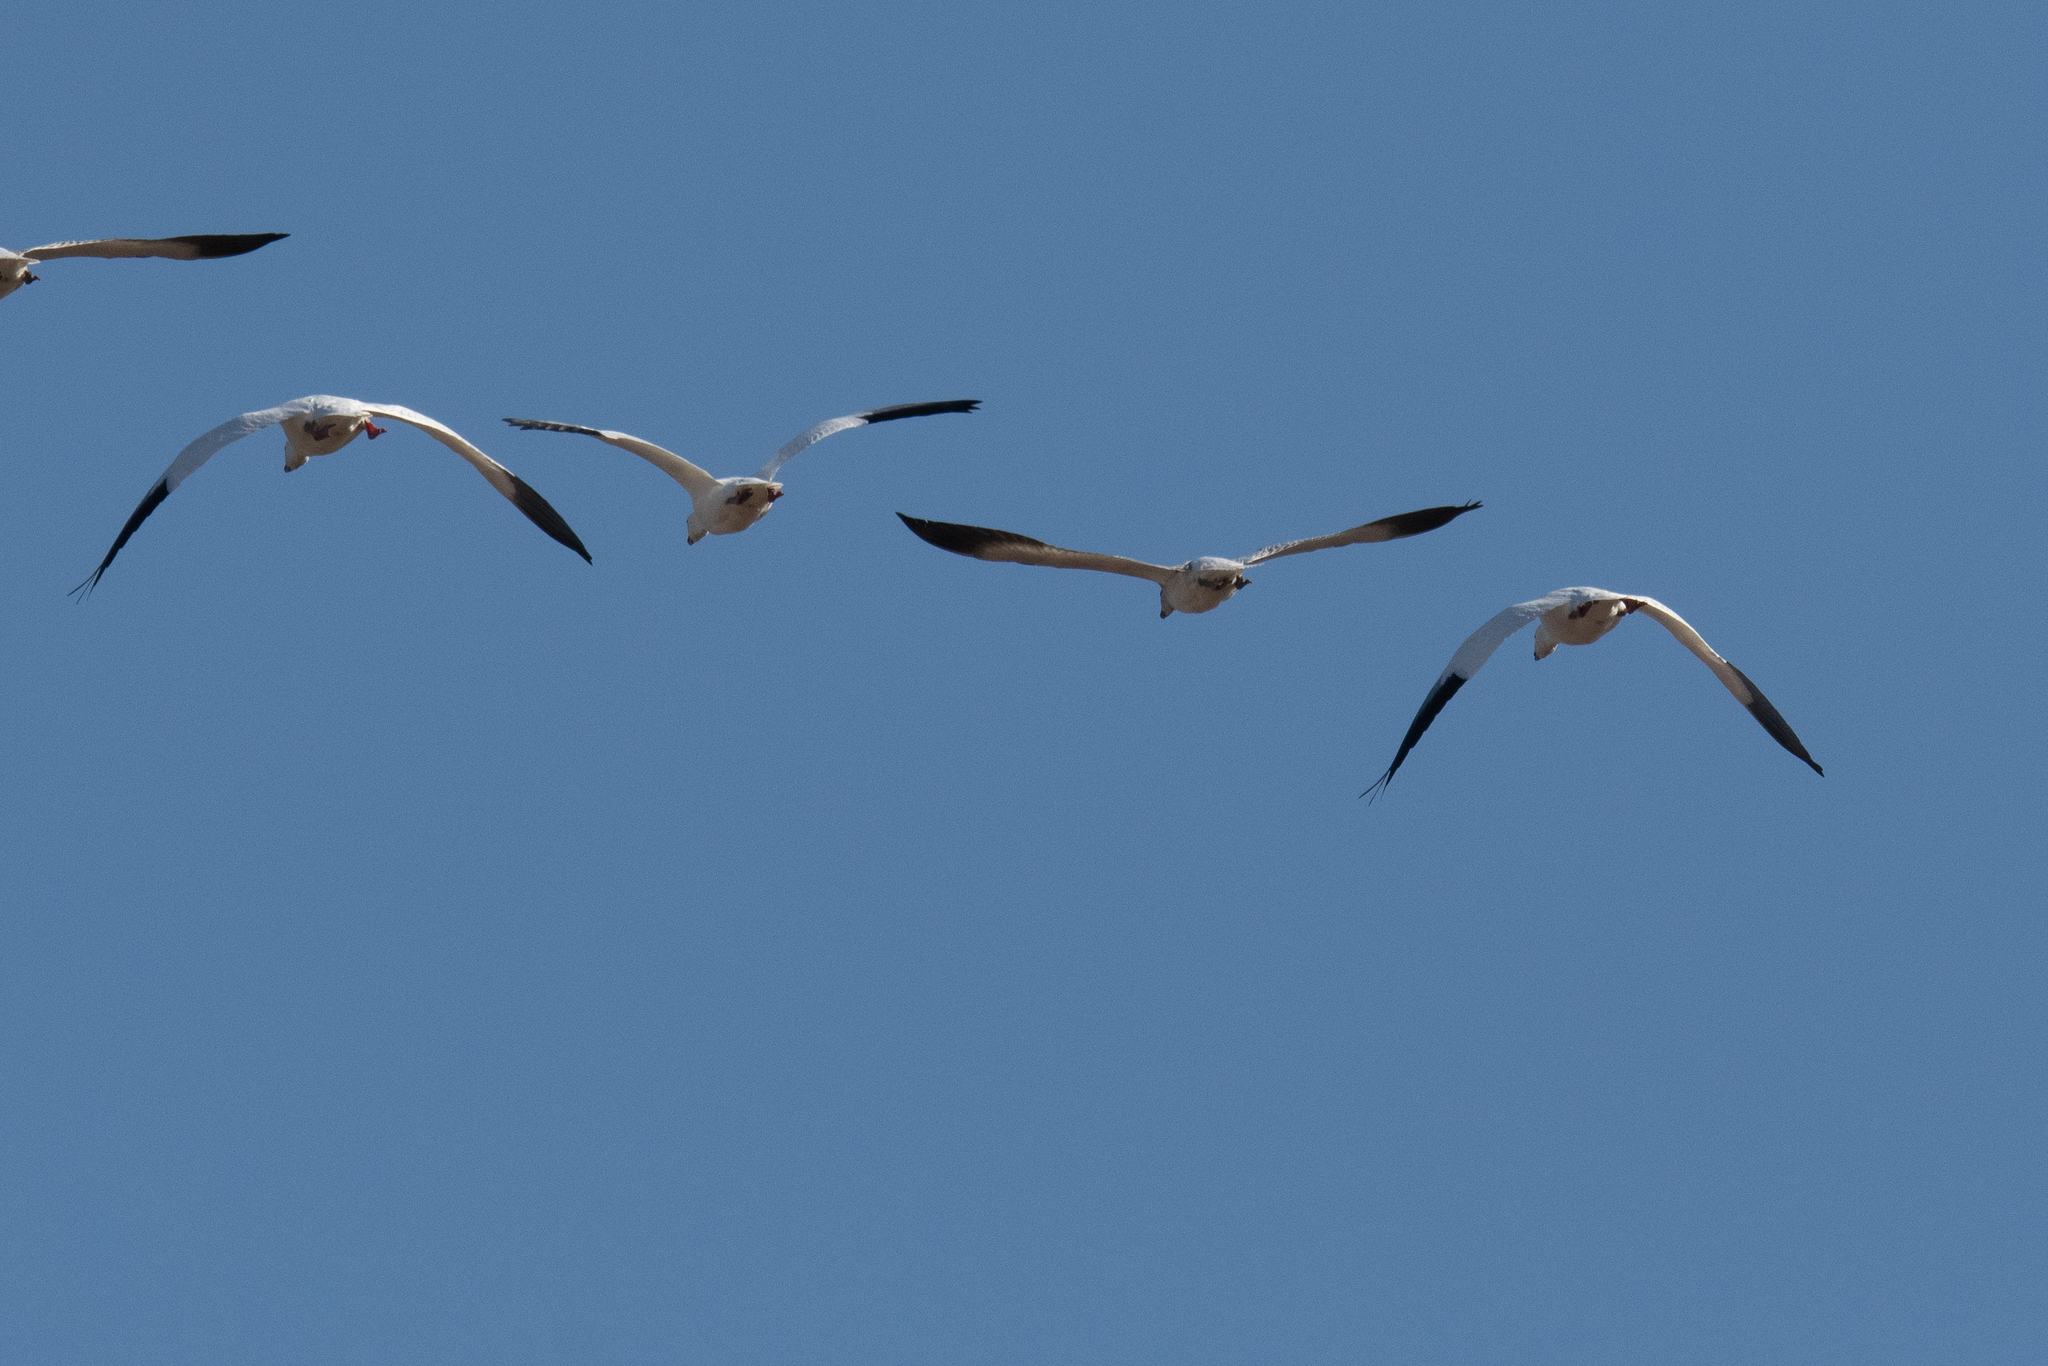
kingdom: Animalia
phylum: Chordata
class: Aves
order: Anseriformes
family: Anatidae
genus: Anser
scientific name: Anser caerulescens
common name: Snow goose
